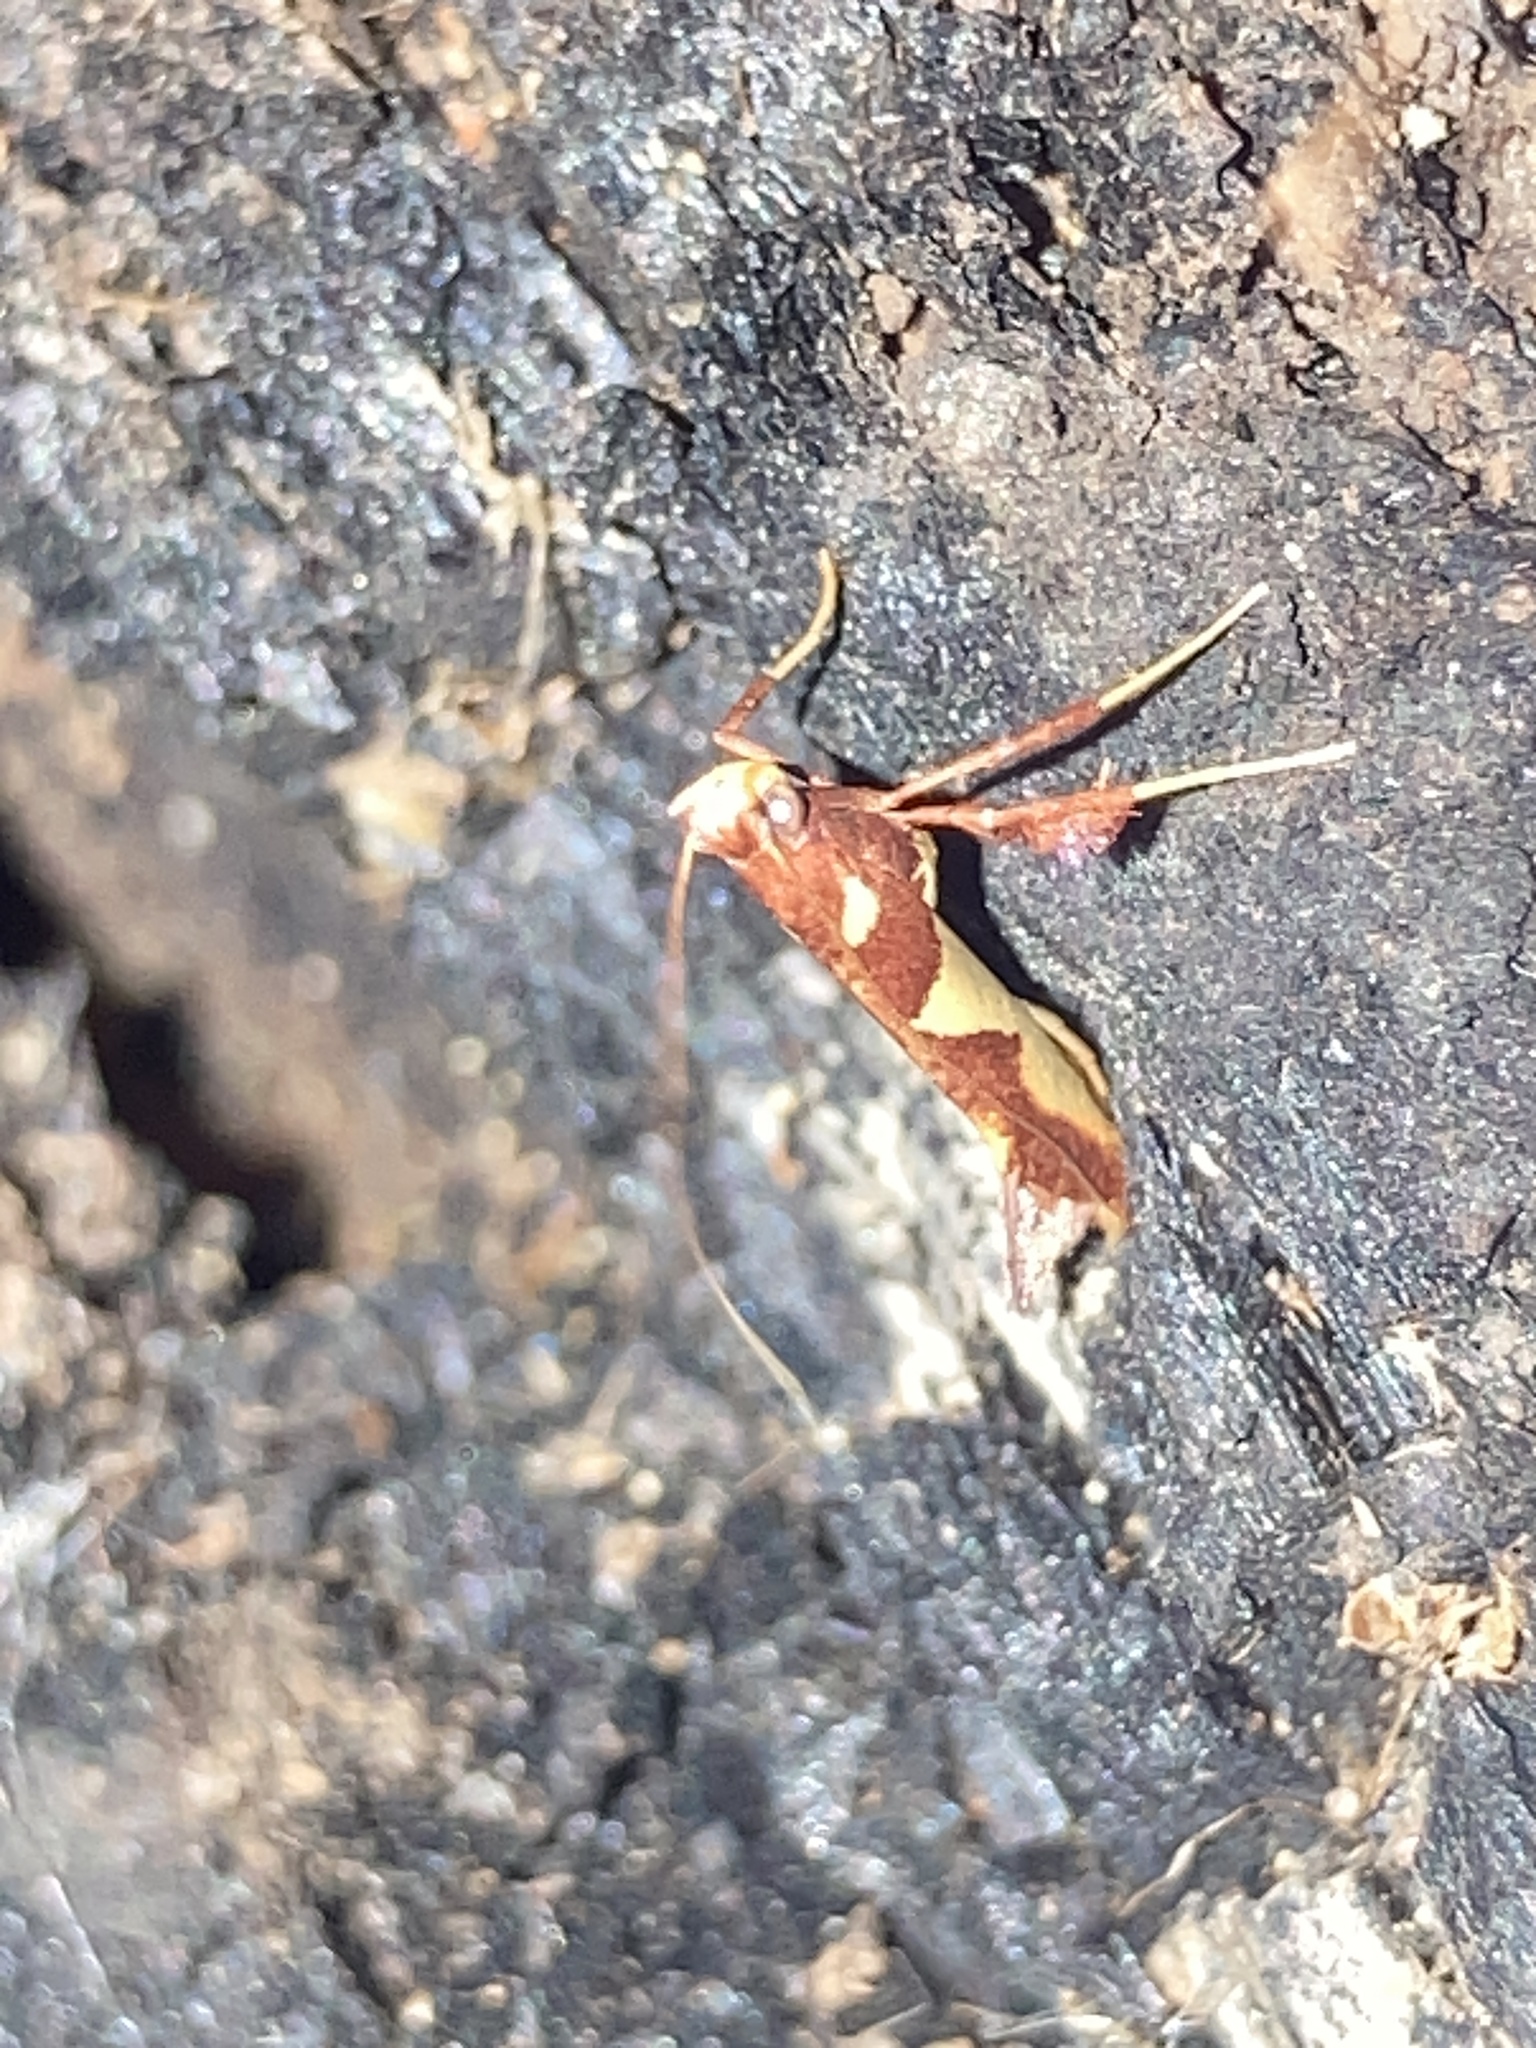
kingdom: Animalia
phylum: Arthropoda
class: Insecta
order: Lepidoptera
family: Gracillariidae
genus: Caloptilia
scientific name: Caloptilia xanthopharella
